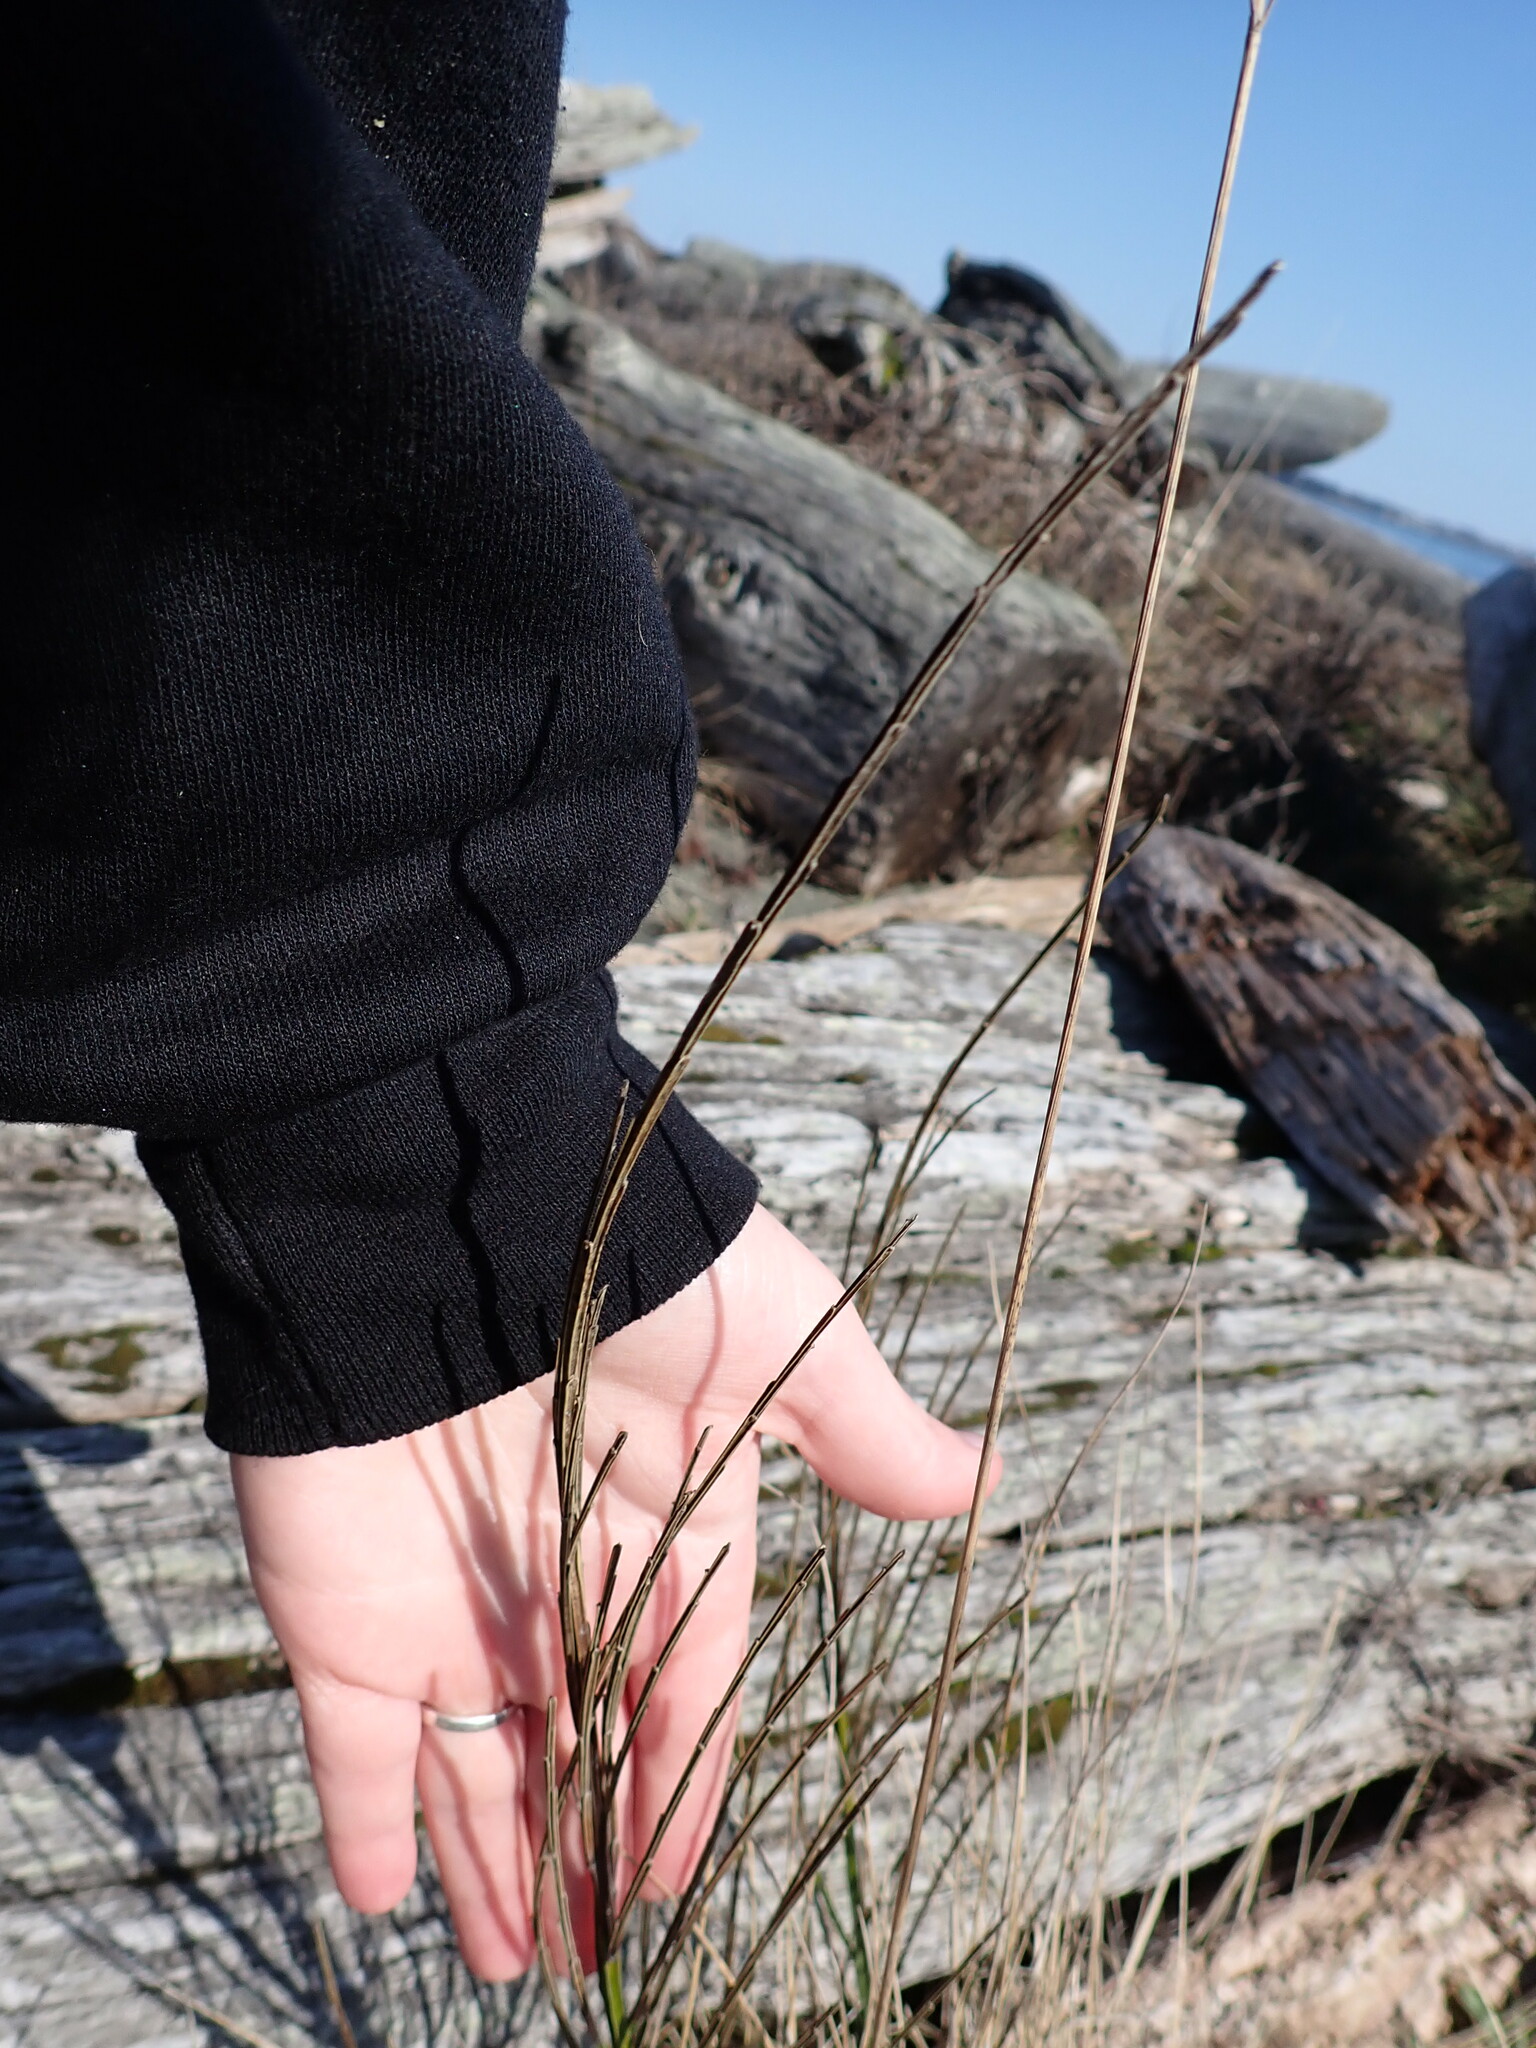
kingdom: Plantae
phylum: Tracheophyta
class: Magnoliopsida
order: Fabales
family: Fabaceae
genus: Cytisus
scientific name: Cytisus scoparius
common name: Scotch broom
